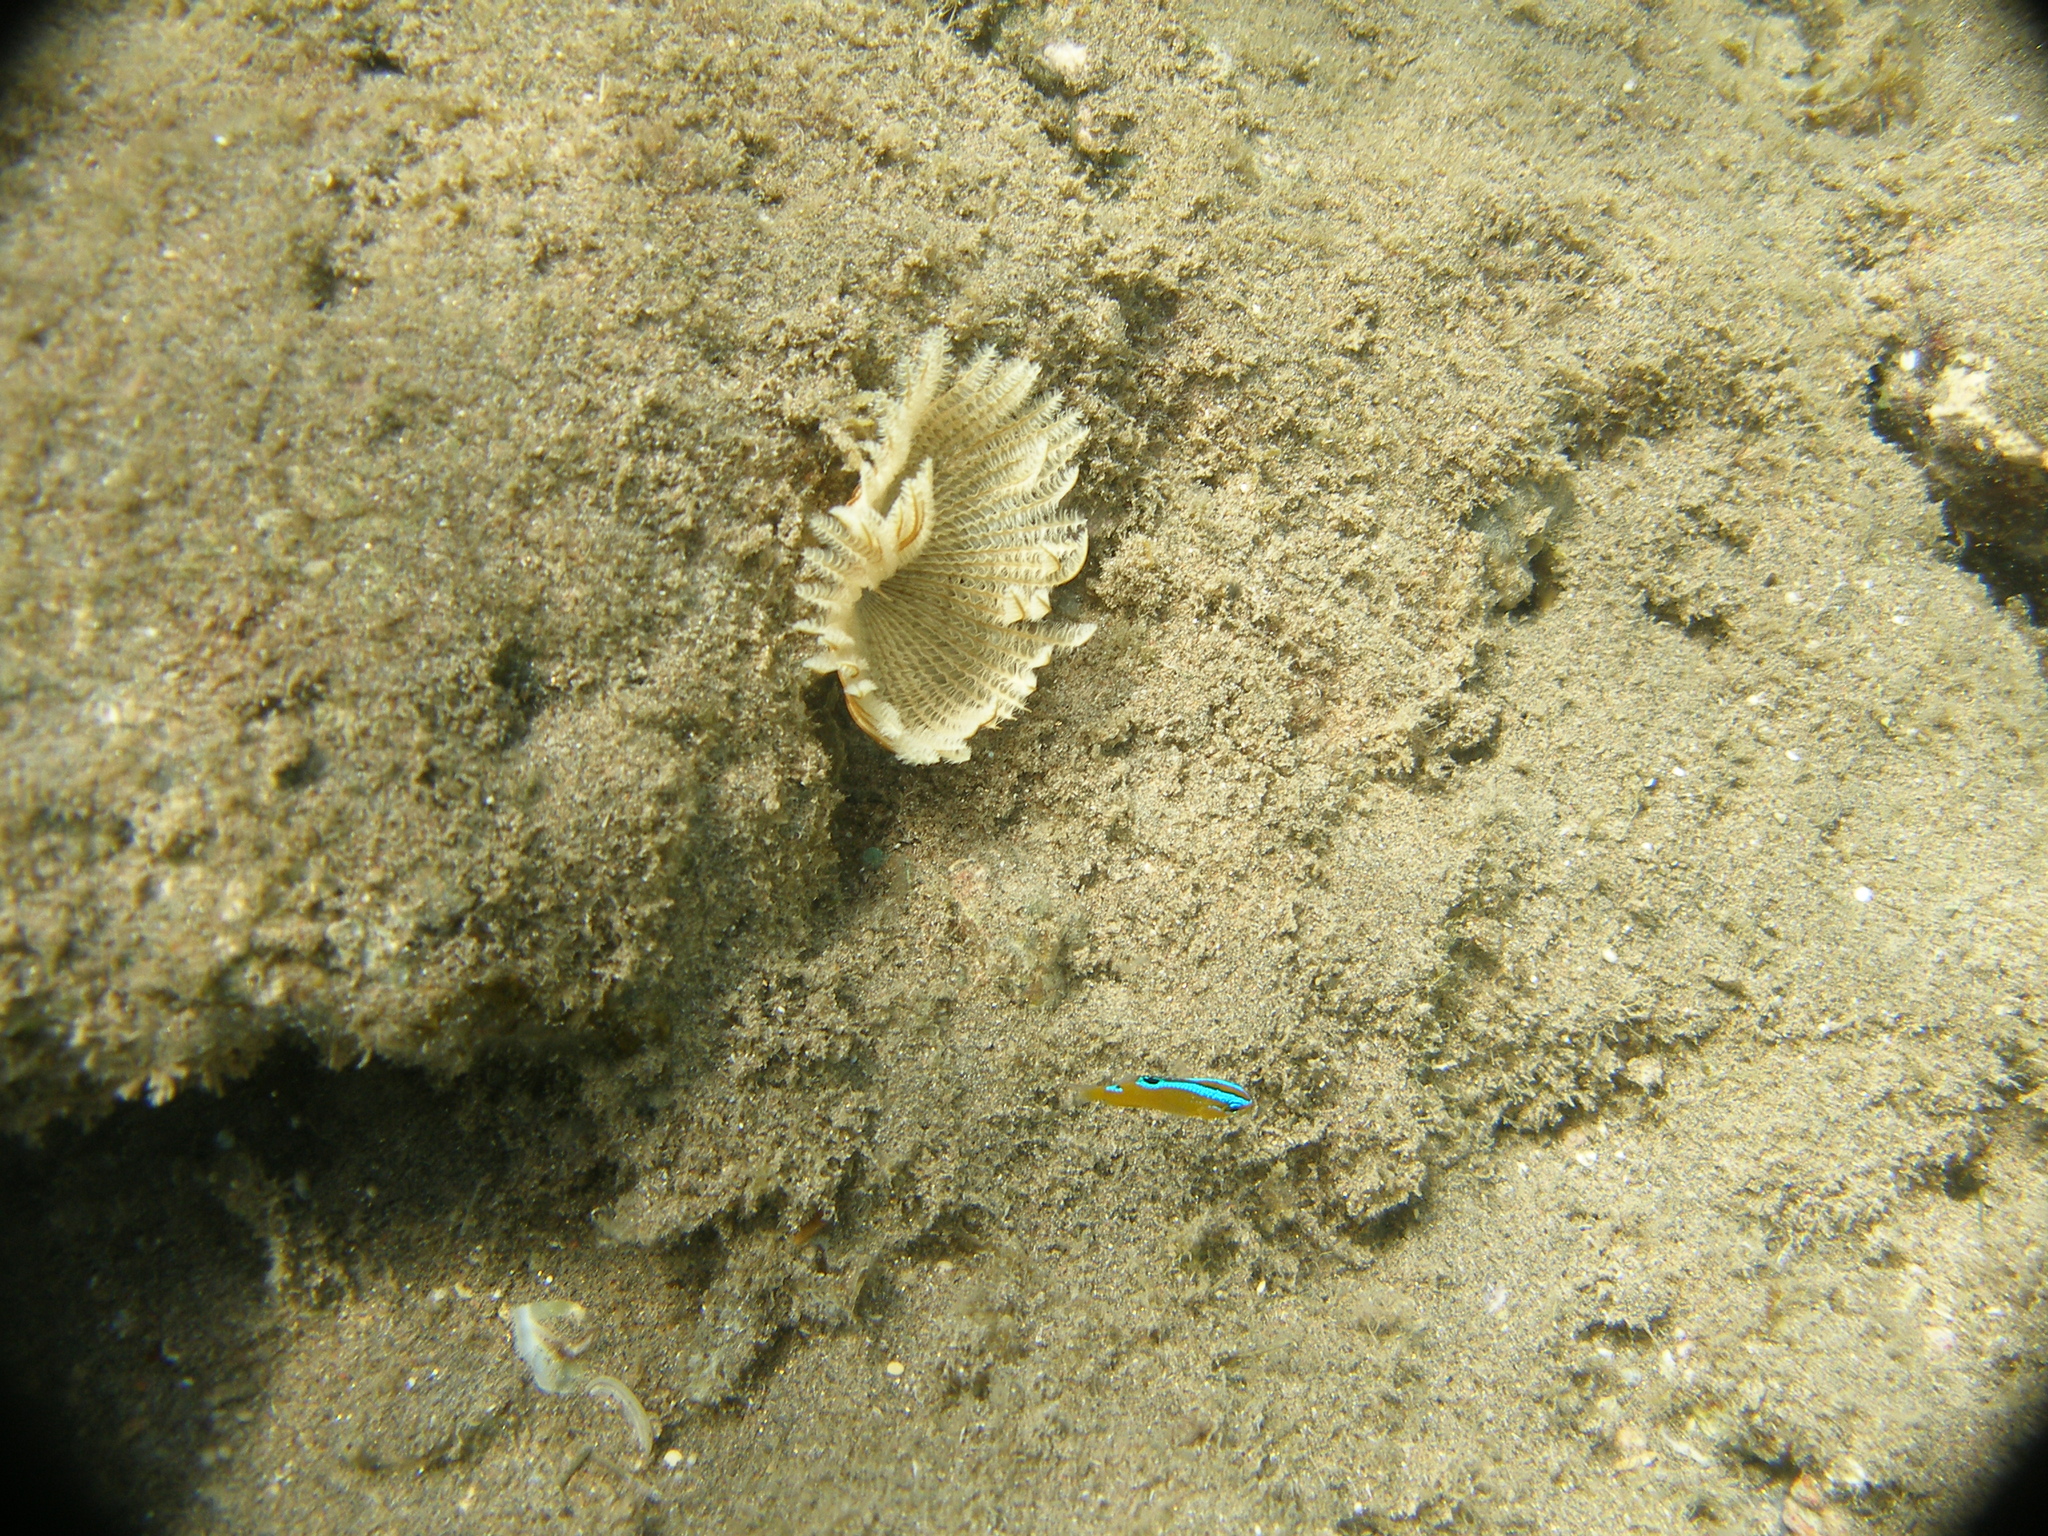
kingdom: Animalia
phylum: Chordata
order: Perciformes
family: Pomacentridae
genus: Chrysiptera
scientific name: Chrysiptera unimaculata
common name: Onespot demoiselle
